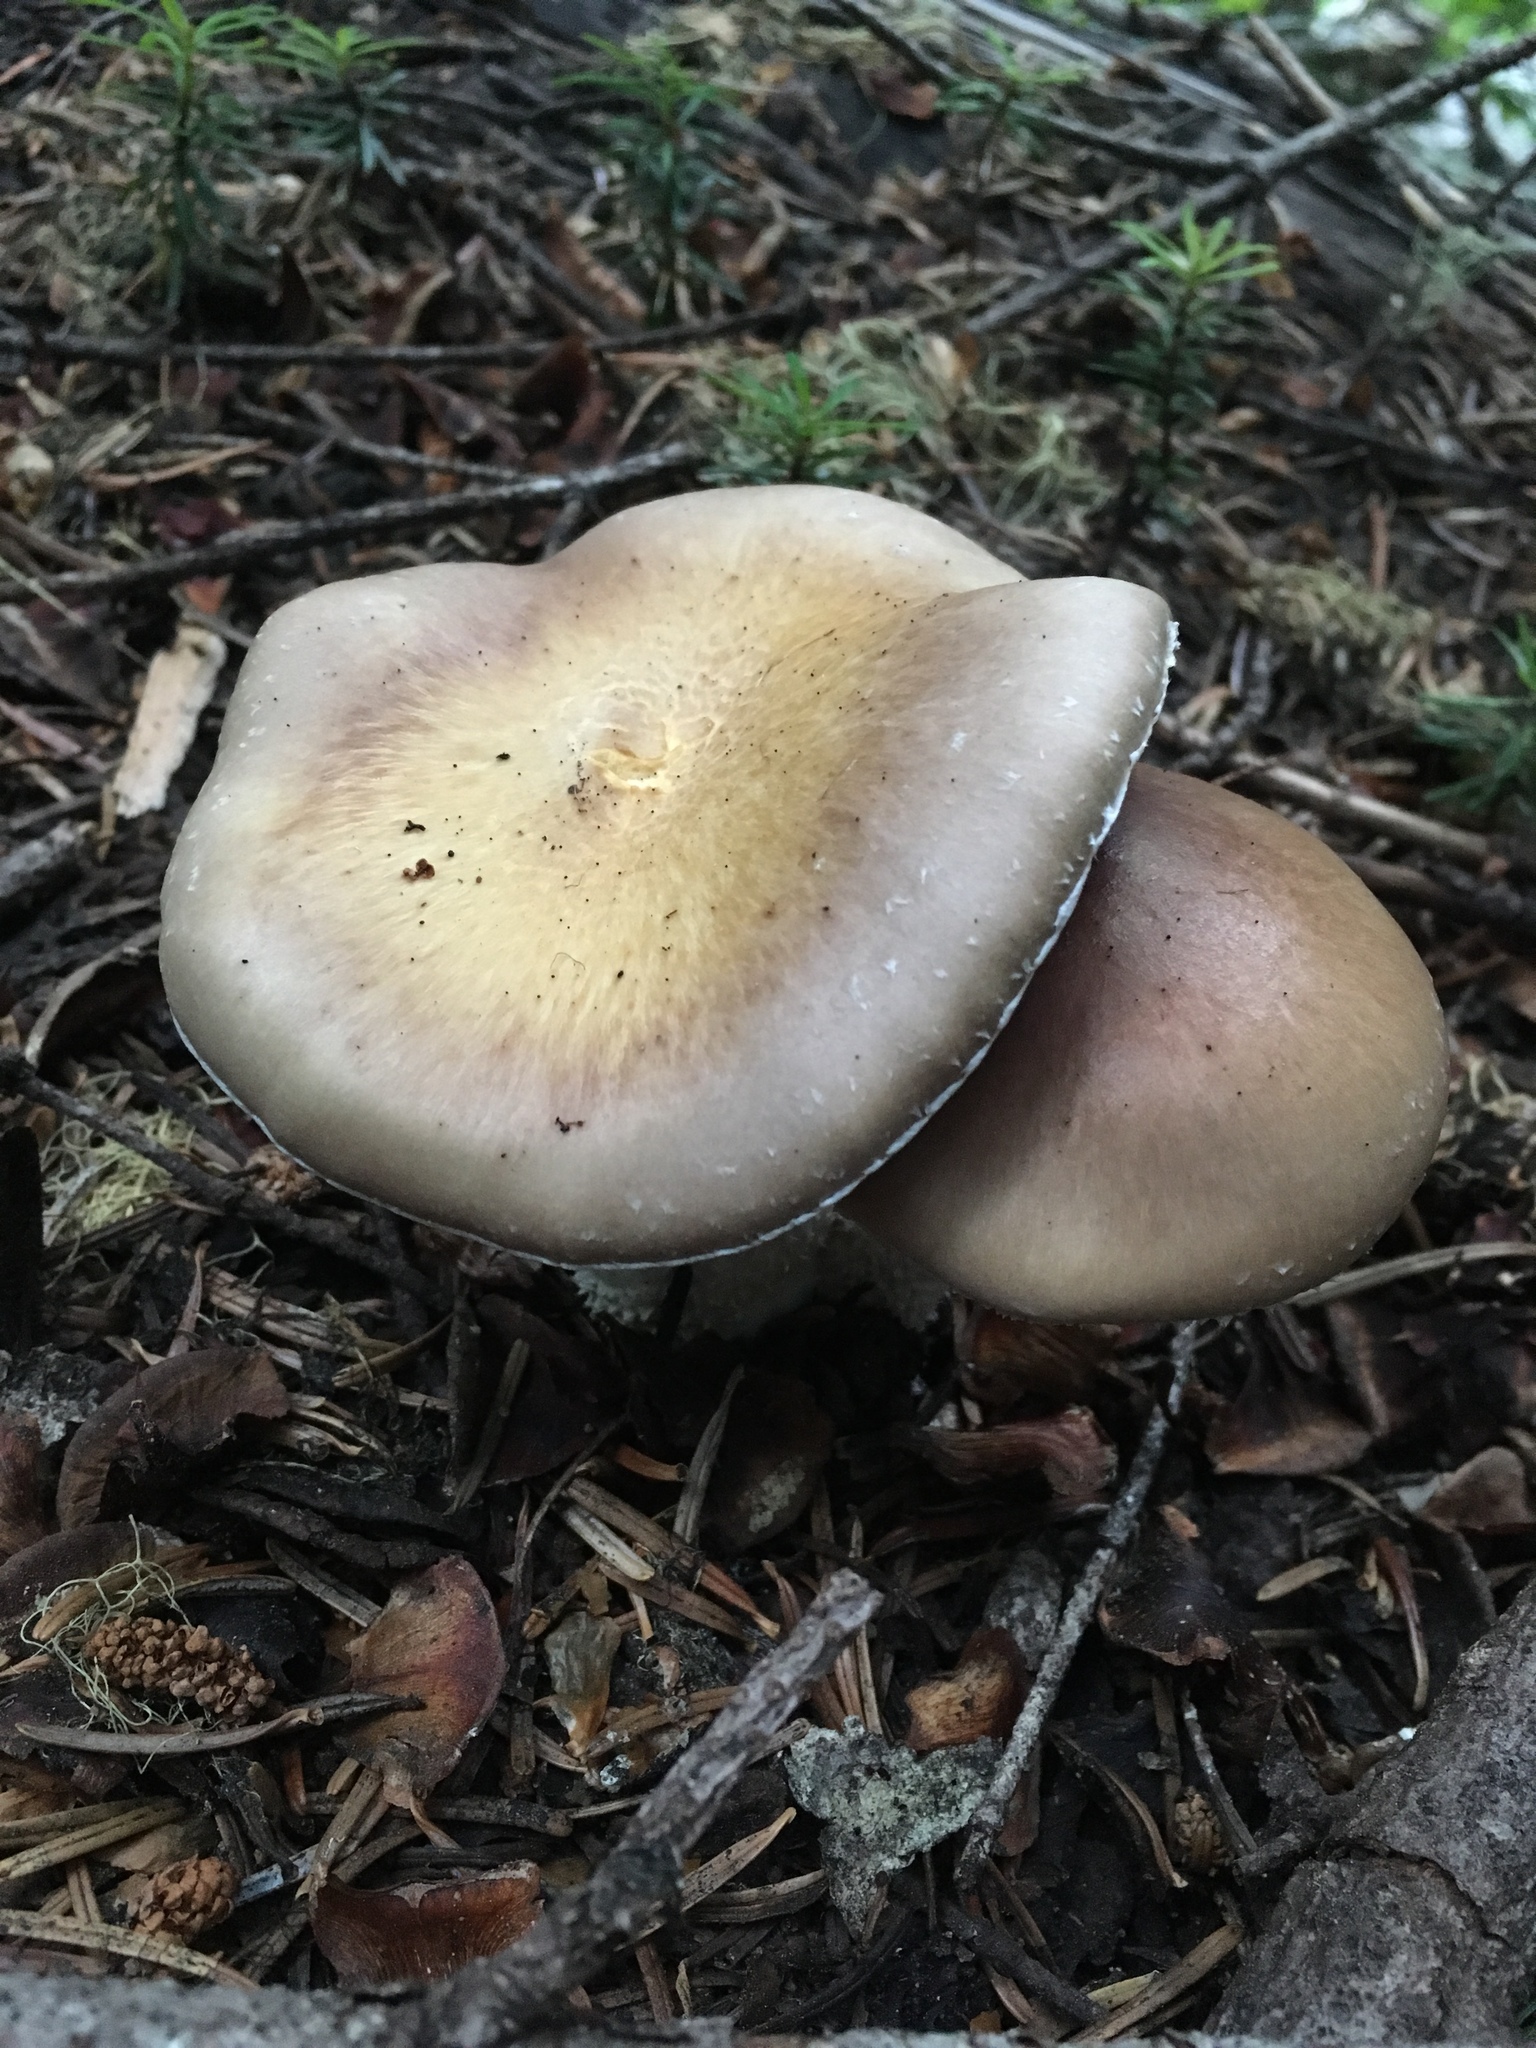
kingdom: Fungi
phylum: Basidiomycota
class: Agaricomycetes
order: Agaricales
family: Strophariaceae
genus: Stropharia
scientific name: Stropharia hornemannii
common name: Conifer roundhead
